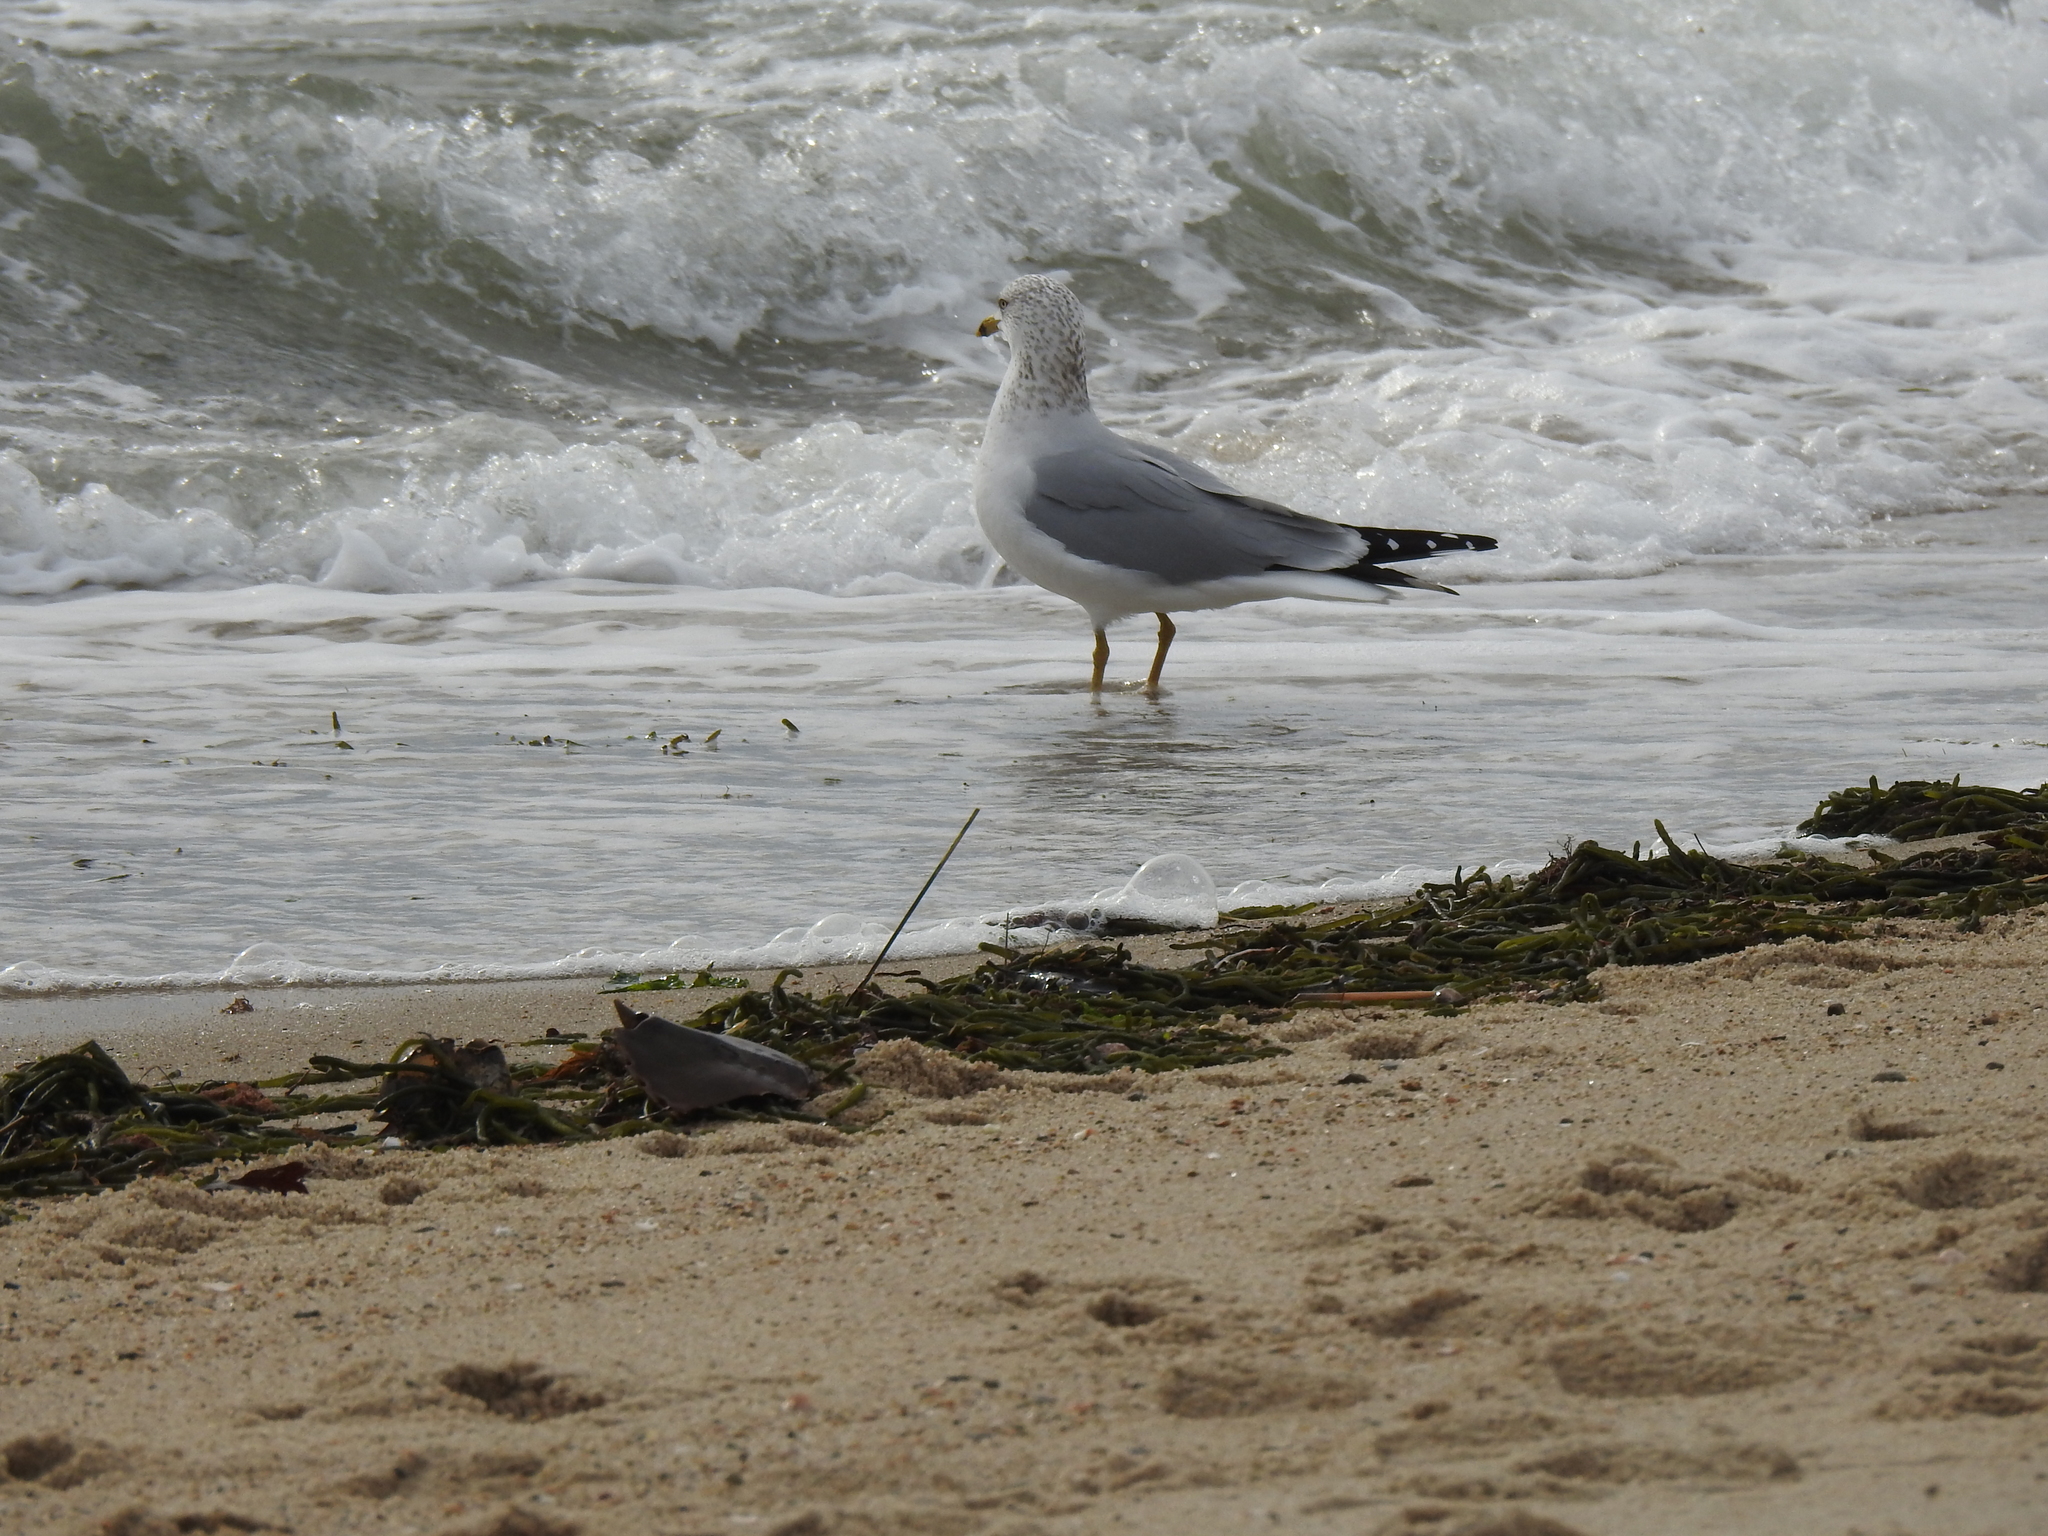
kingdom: Animalia
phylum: Chordata
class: Aves
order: Charadriiformes
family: Laridae
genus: Larus
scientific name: Larus delawarensis
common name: Ring-billed gull
